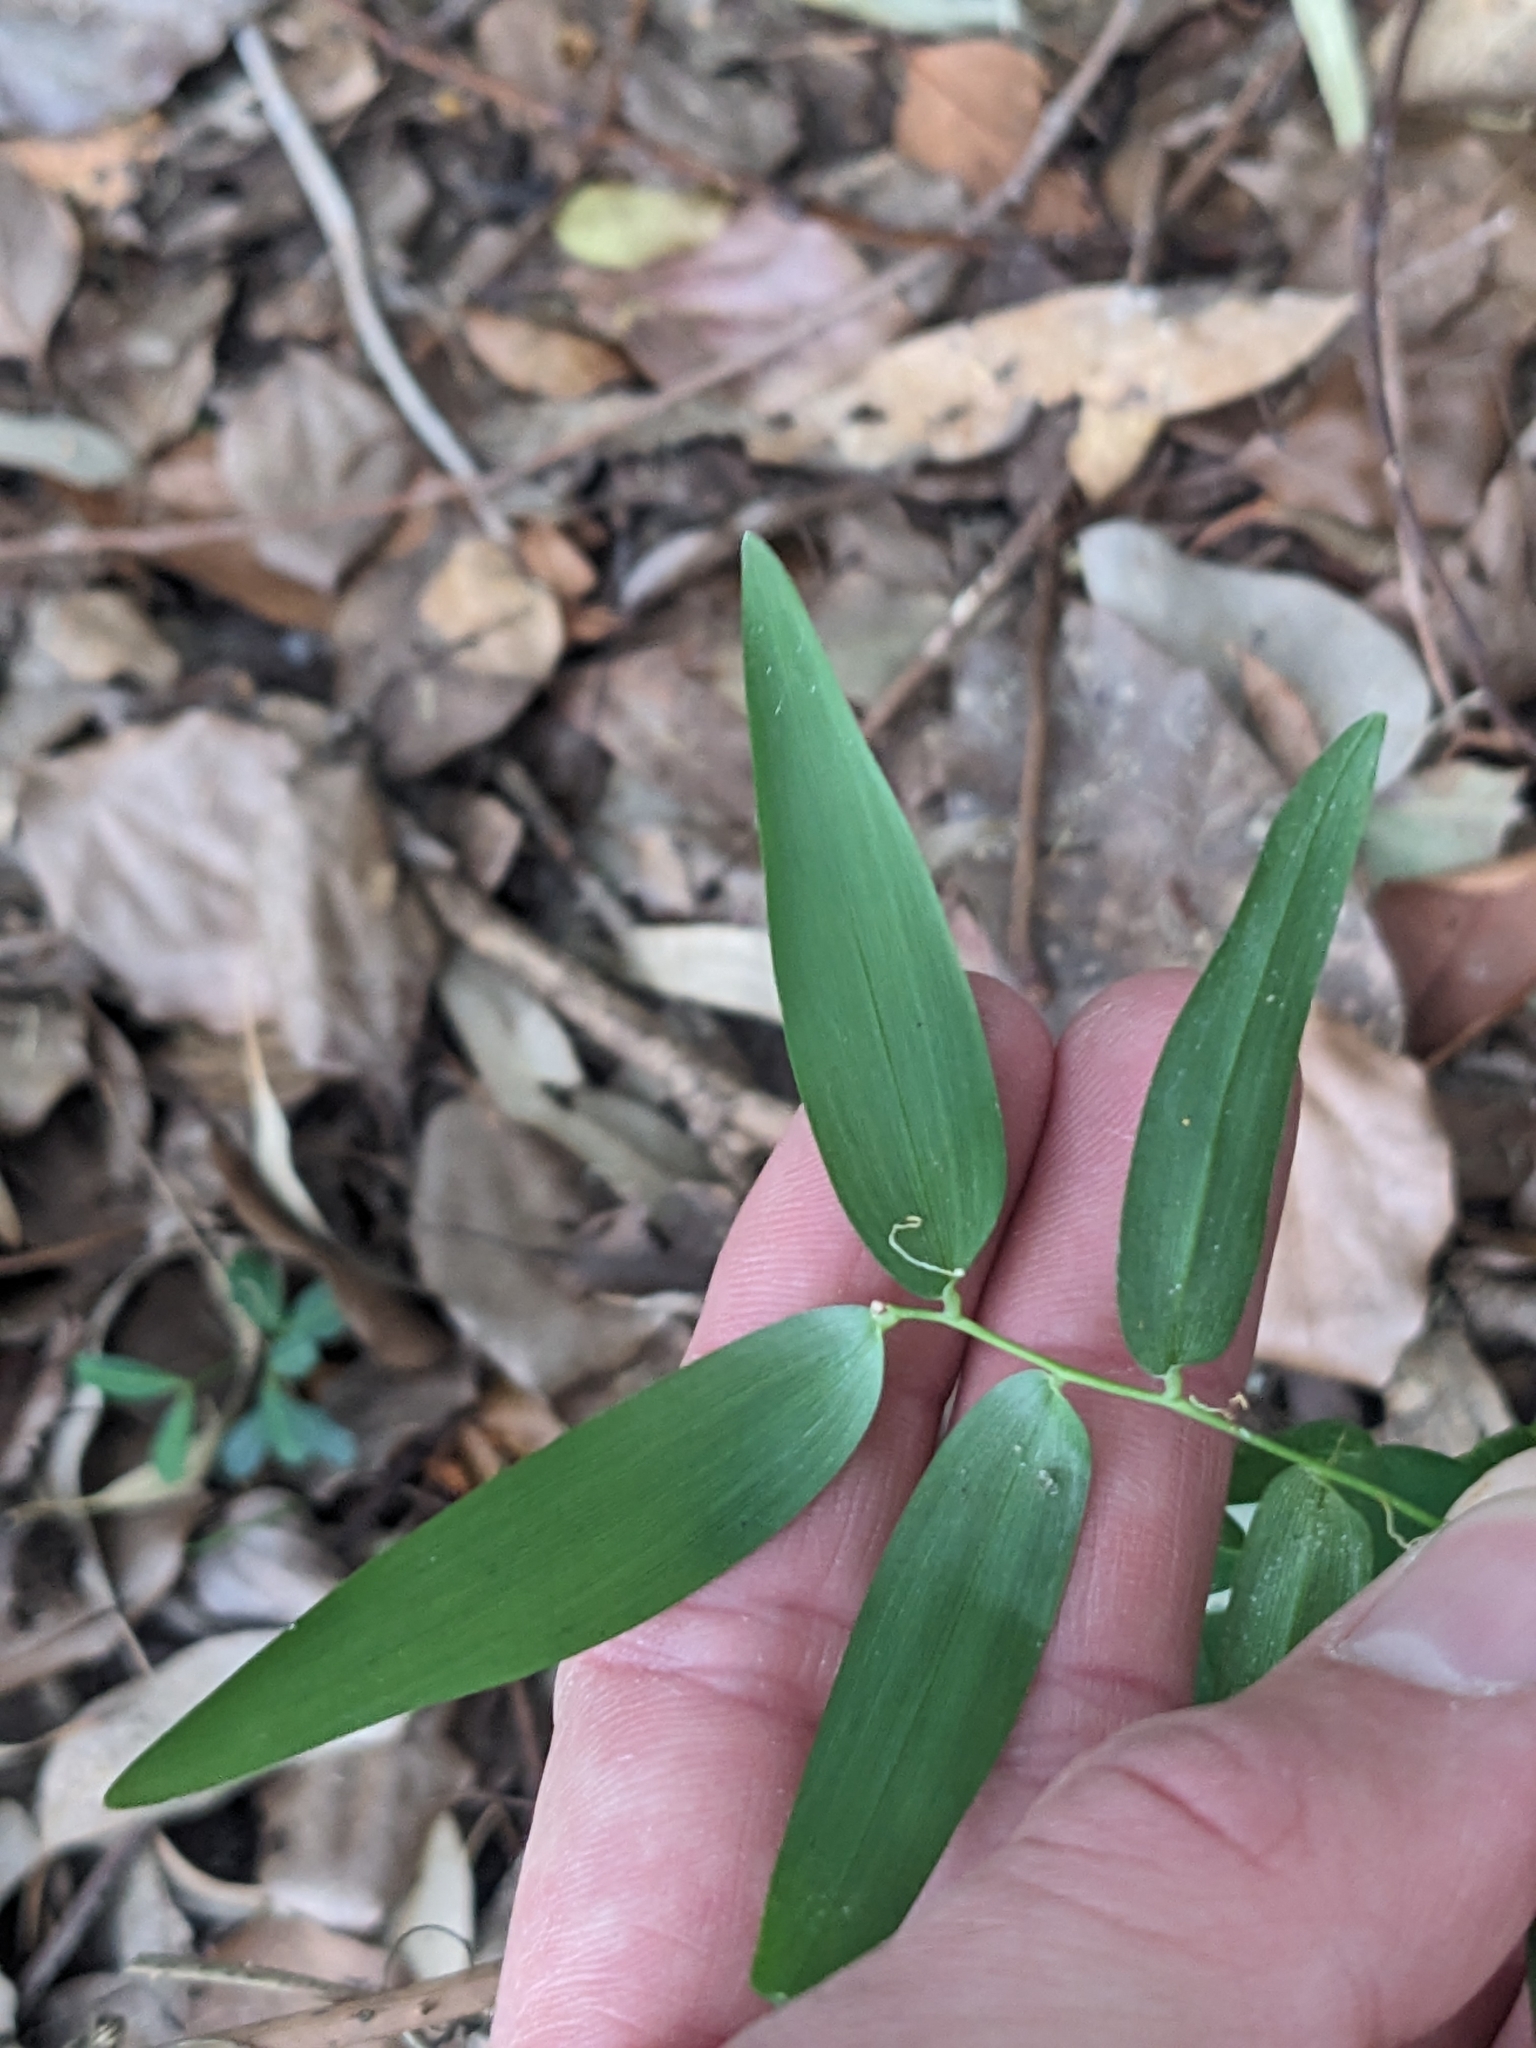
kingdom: Plantae
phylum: Tracheophyta
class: Liliopsida
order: Asparagales
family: Asphodelaceae
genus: Geitonoplesium
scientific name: Geitonoplesium cymosum
